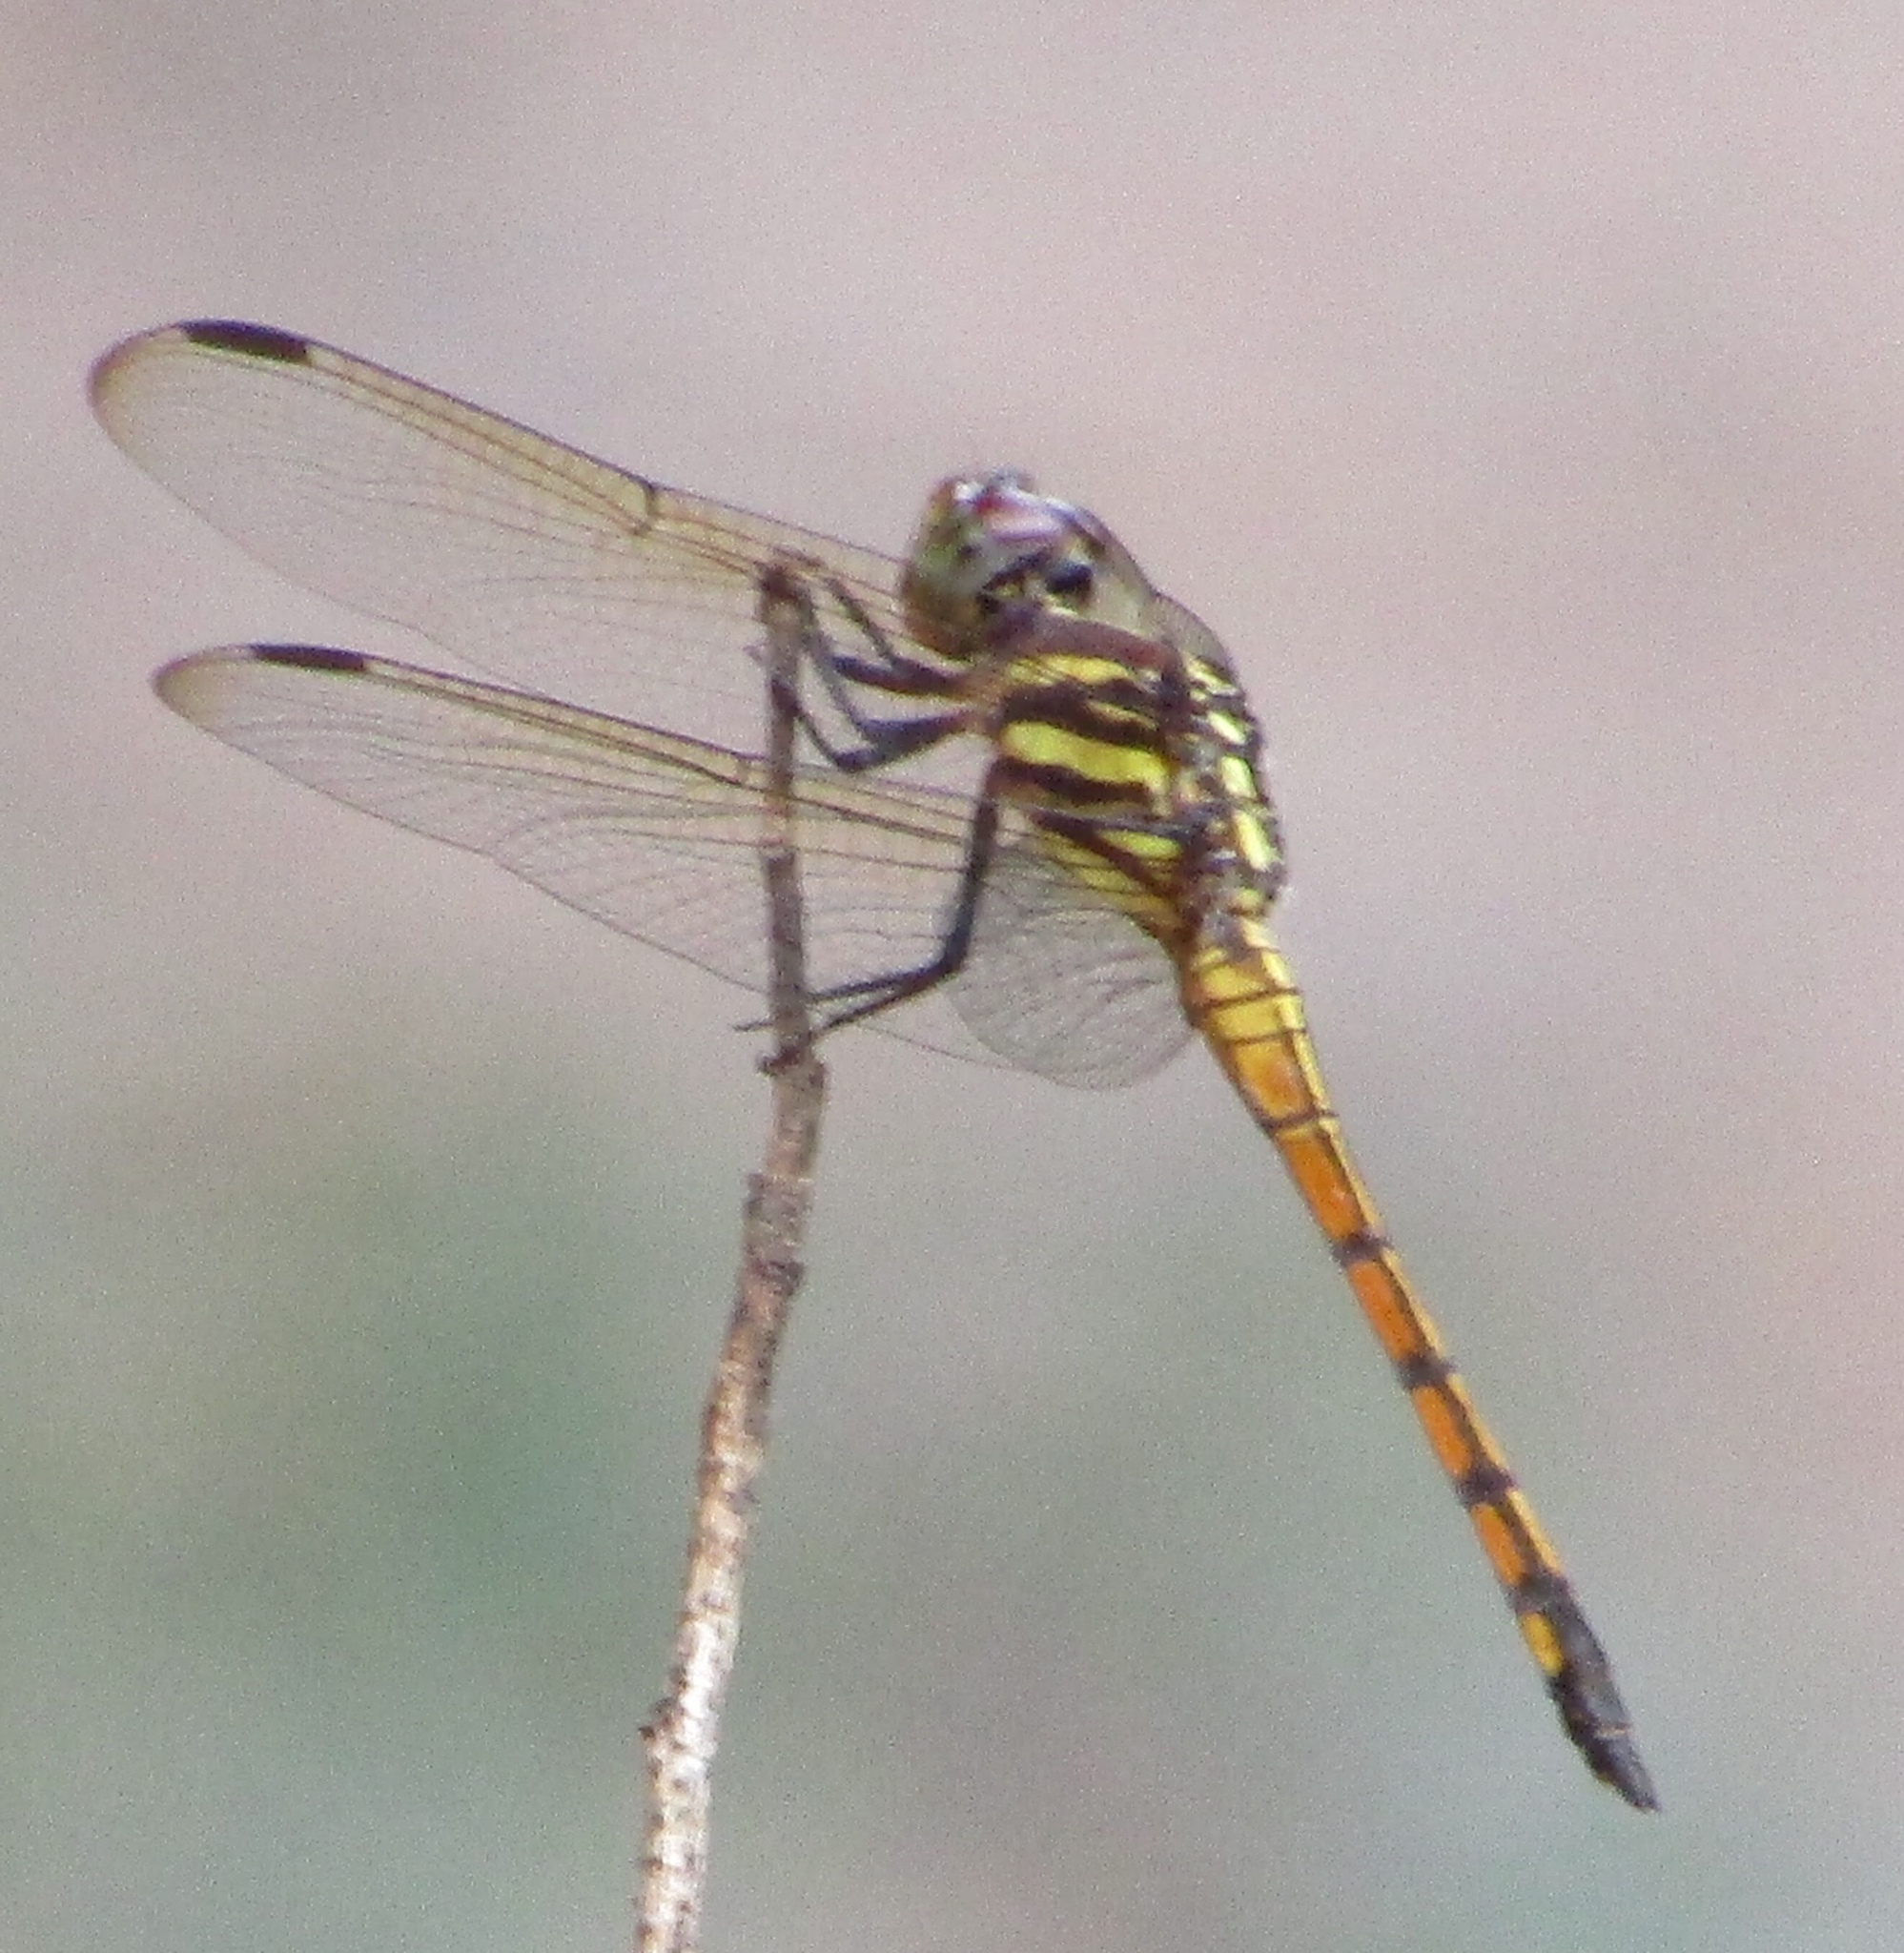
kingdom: Animalia
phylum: Arthropoda
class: Insecta
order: Odonata
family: Libellulidae
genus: Potamarcha
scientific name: Potamarcha congener
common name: Blue chaser
